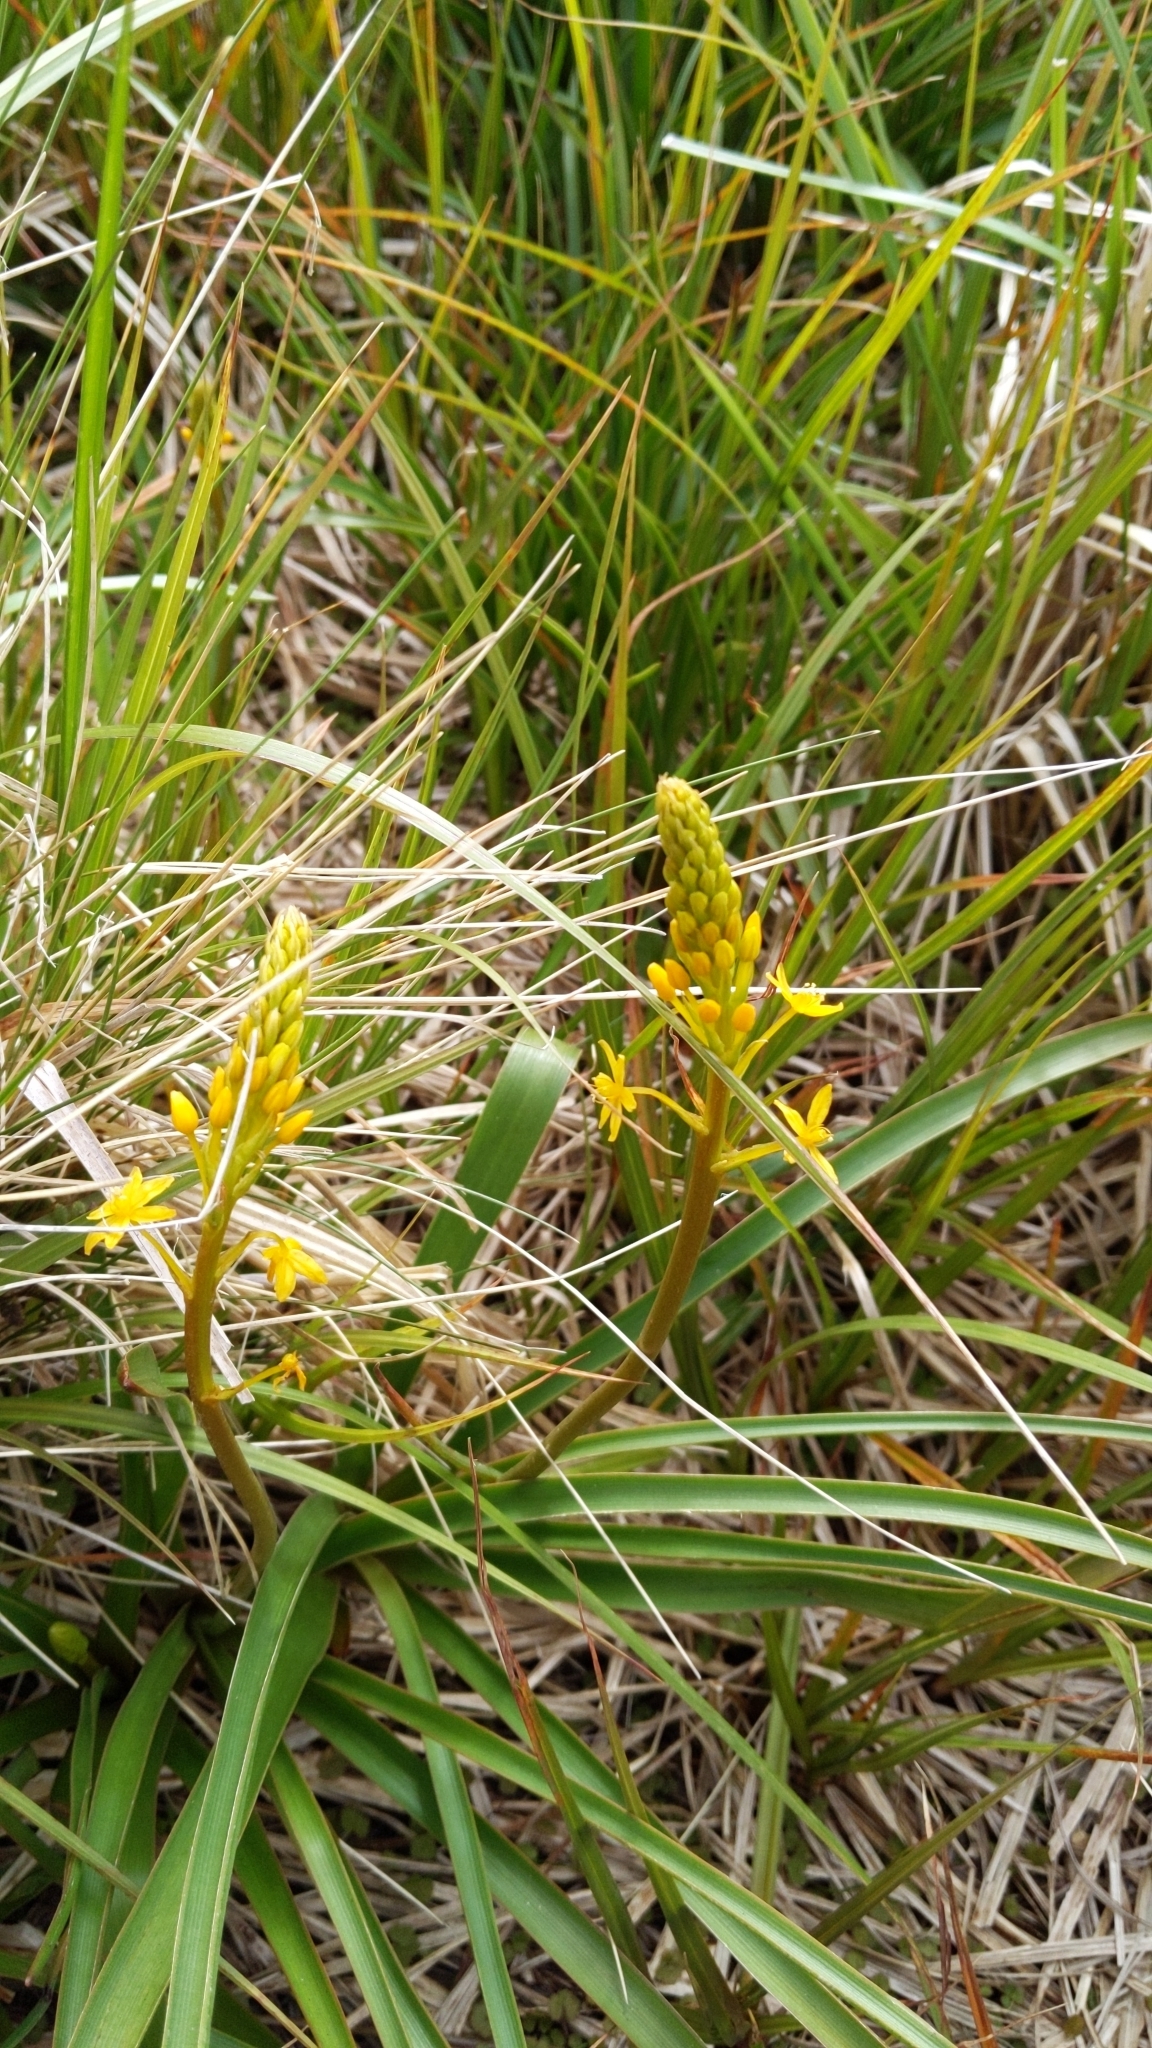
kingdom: Plantae
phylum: Tracheophyta
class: Liliopsida
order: Asparagales
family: Asphodelaceae
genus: Bulbinella
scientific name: Bulbinella hookeri
